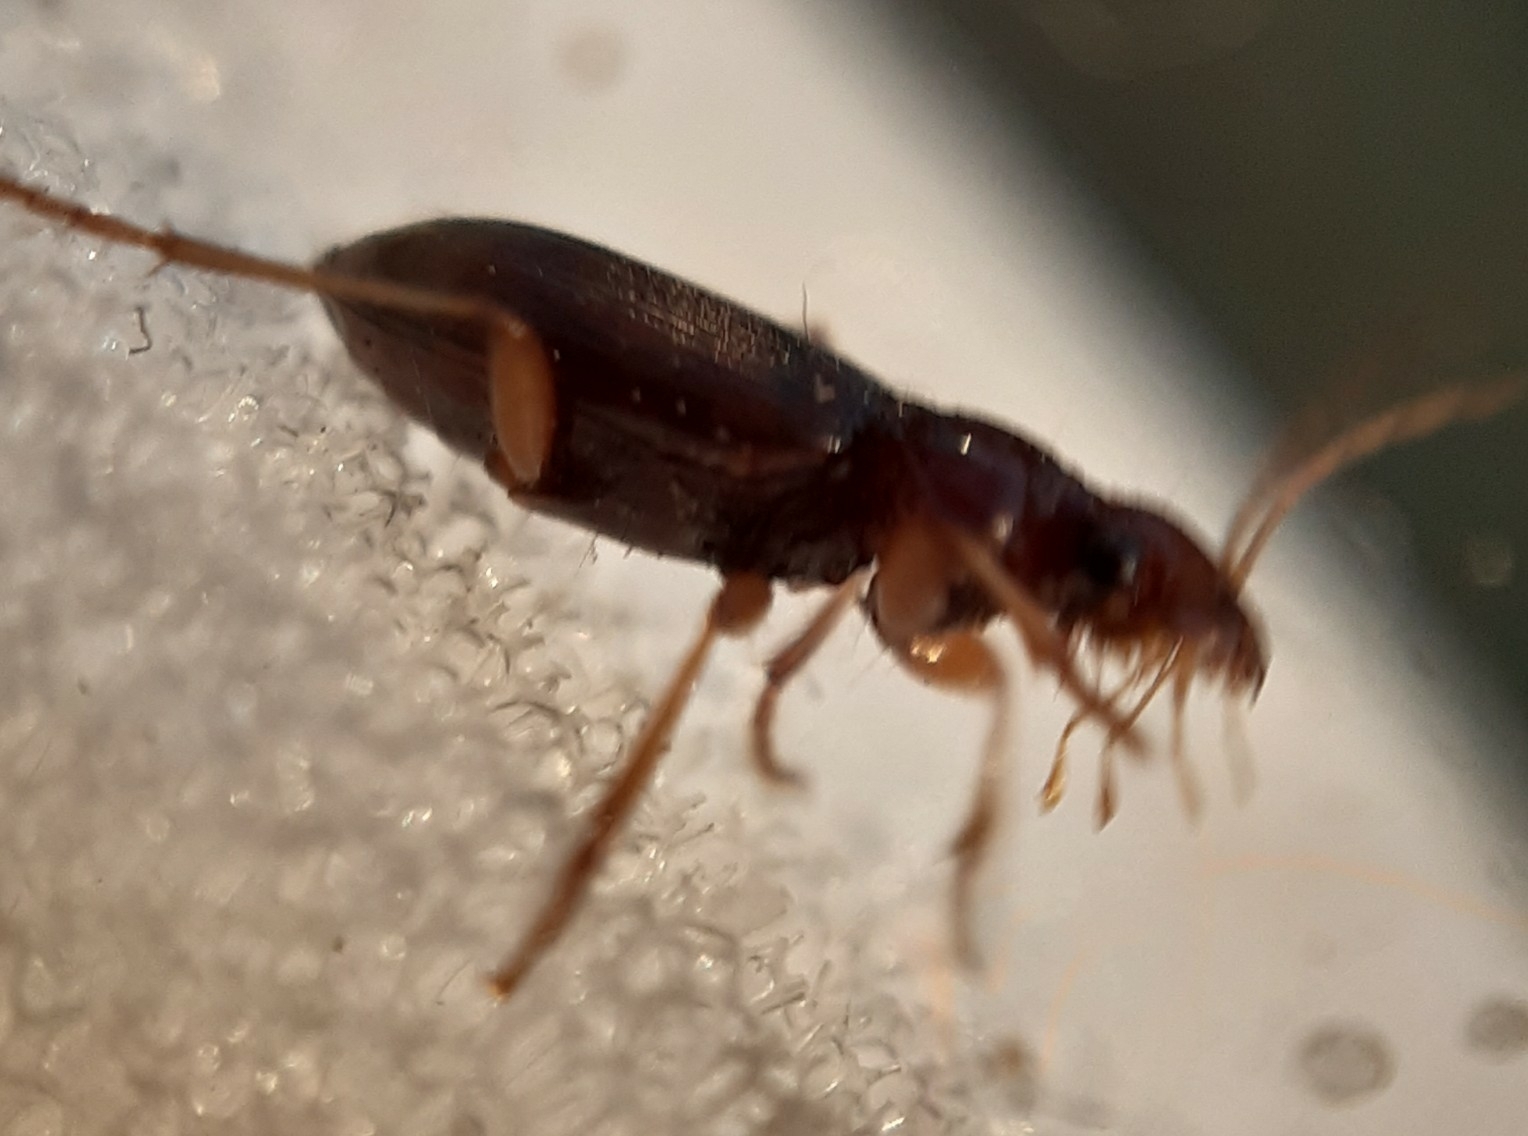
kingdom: Animalia
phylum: Arthropoda
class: Insecta
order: Coleoptera
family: Carabidae
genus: Leistus
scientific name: Leistus ferrugineus
